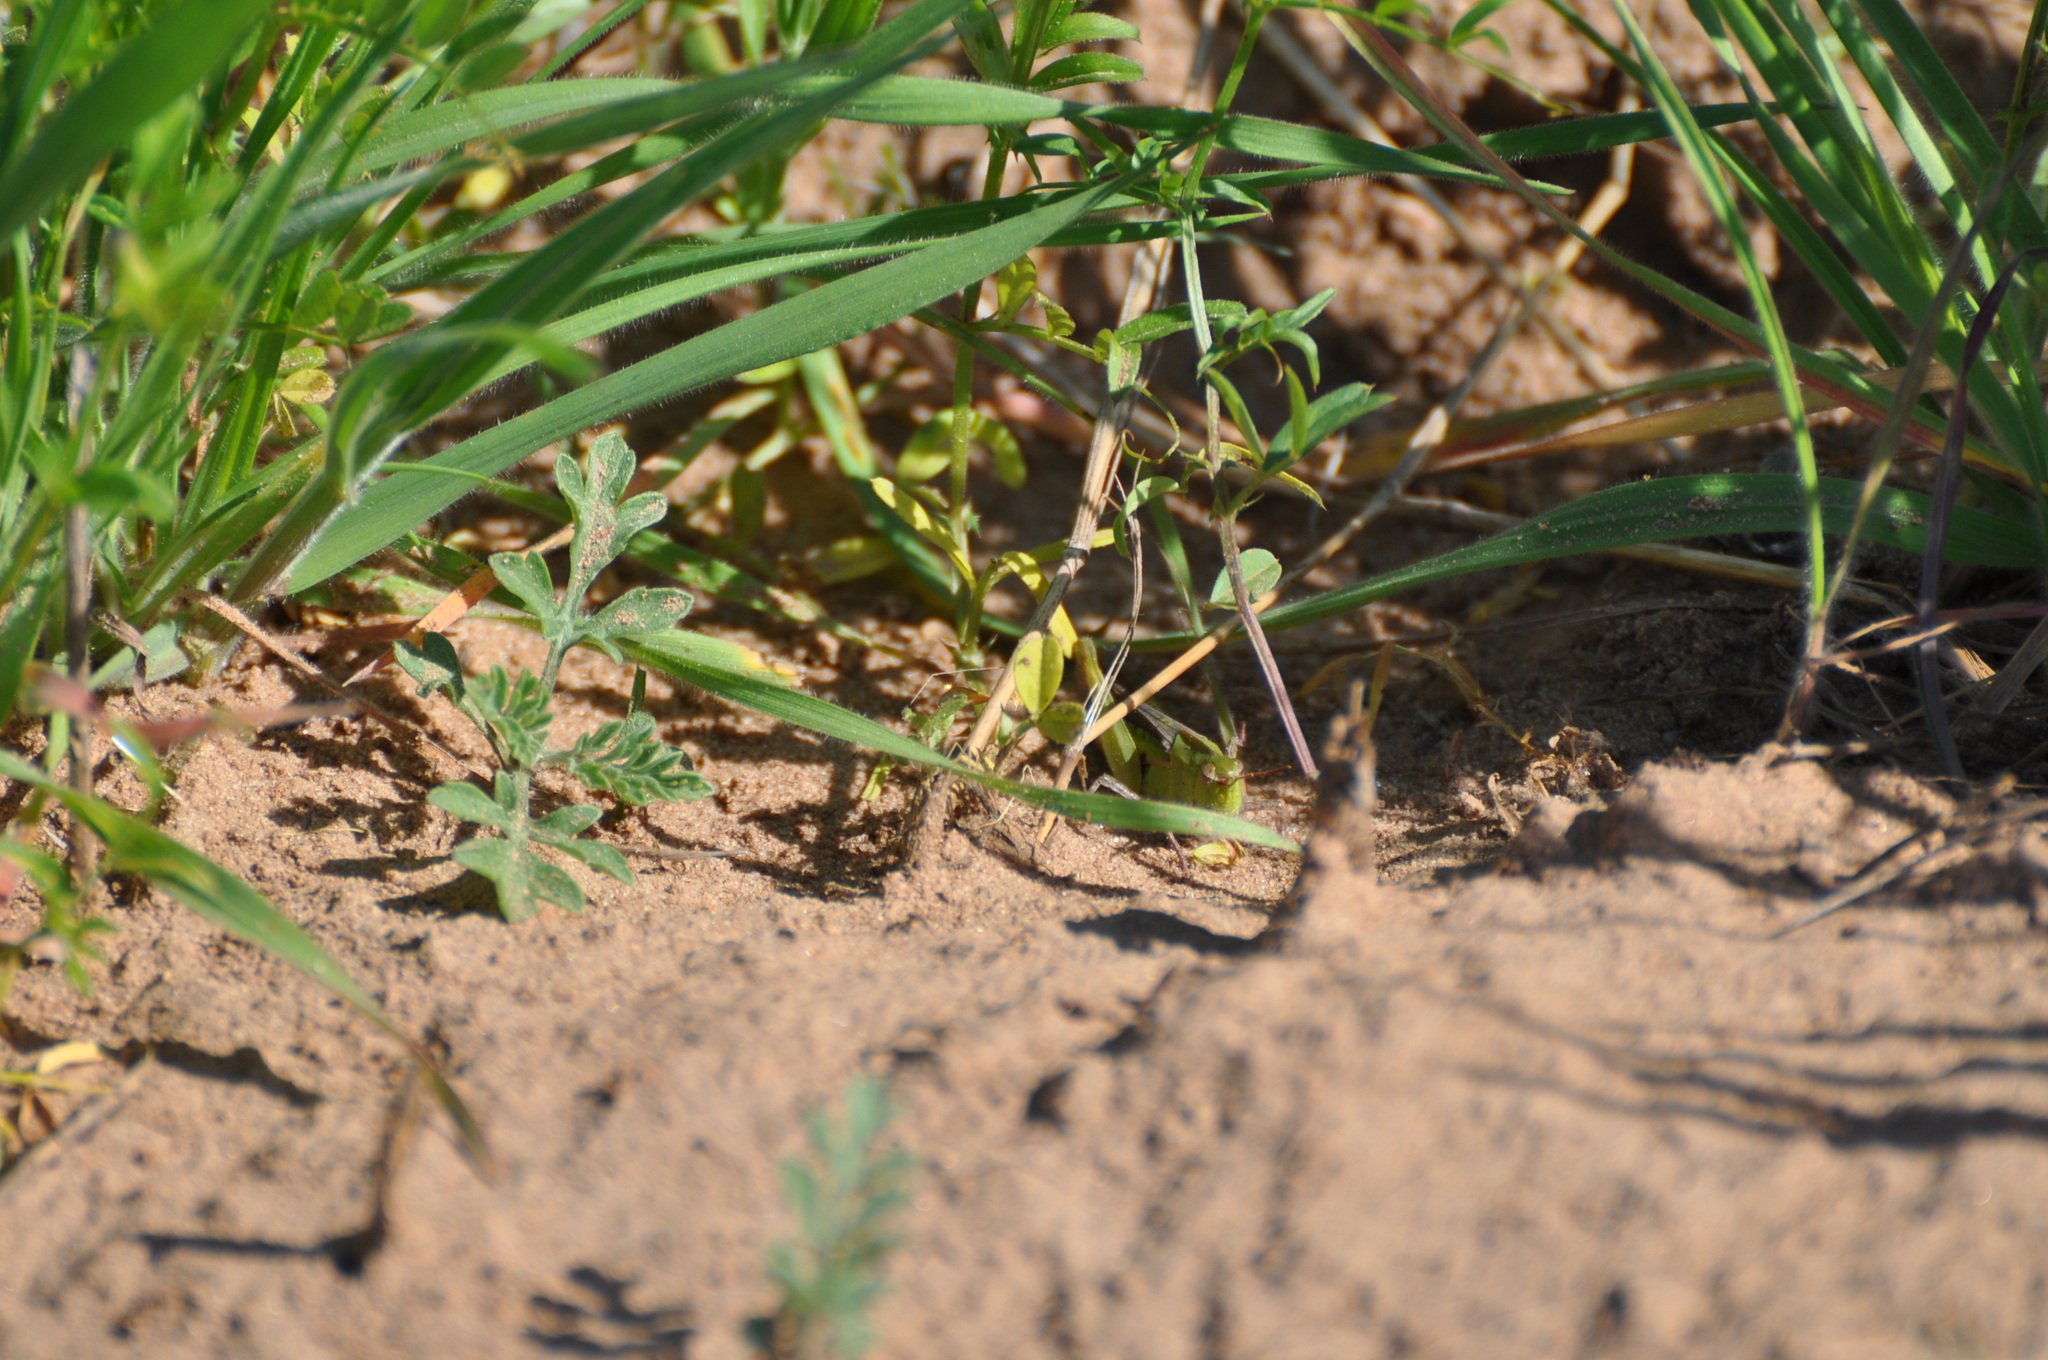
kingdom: Animalia
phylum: Arthropoda
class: Insecta
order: Orthoptera
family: Acrididae
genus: Chortophaga
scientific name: Chortophaga viridifasciata
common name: Green-striped grasshopper
